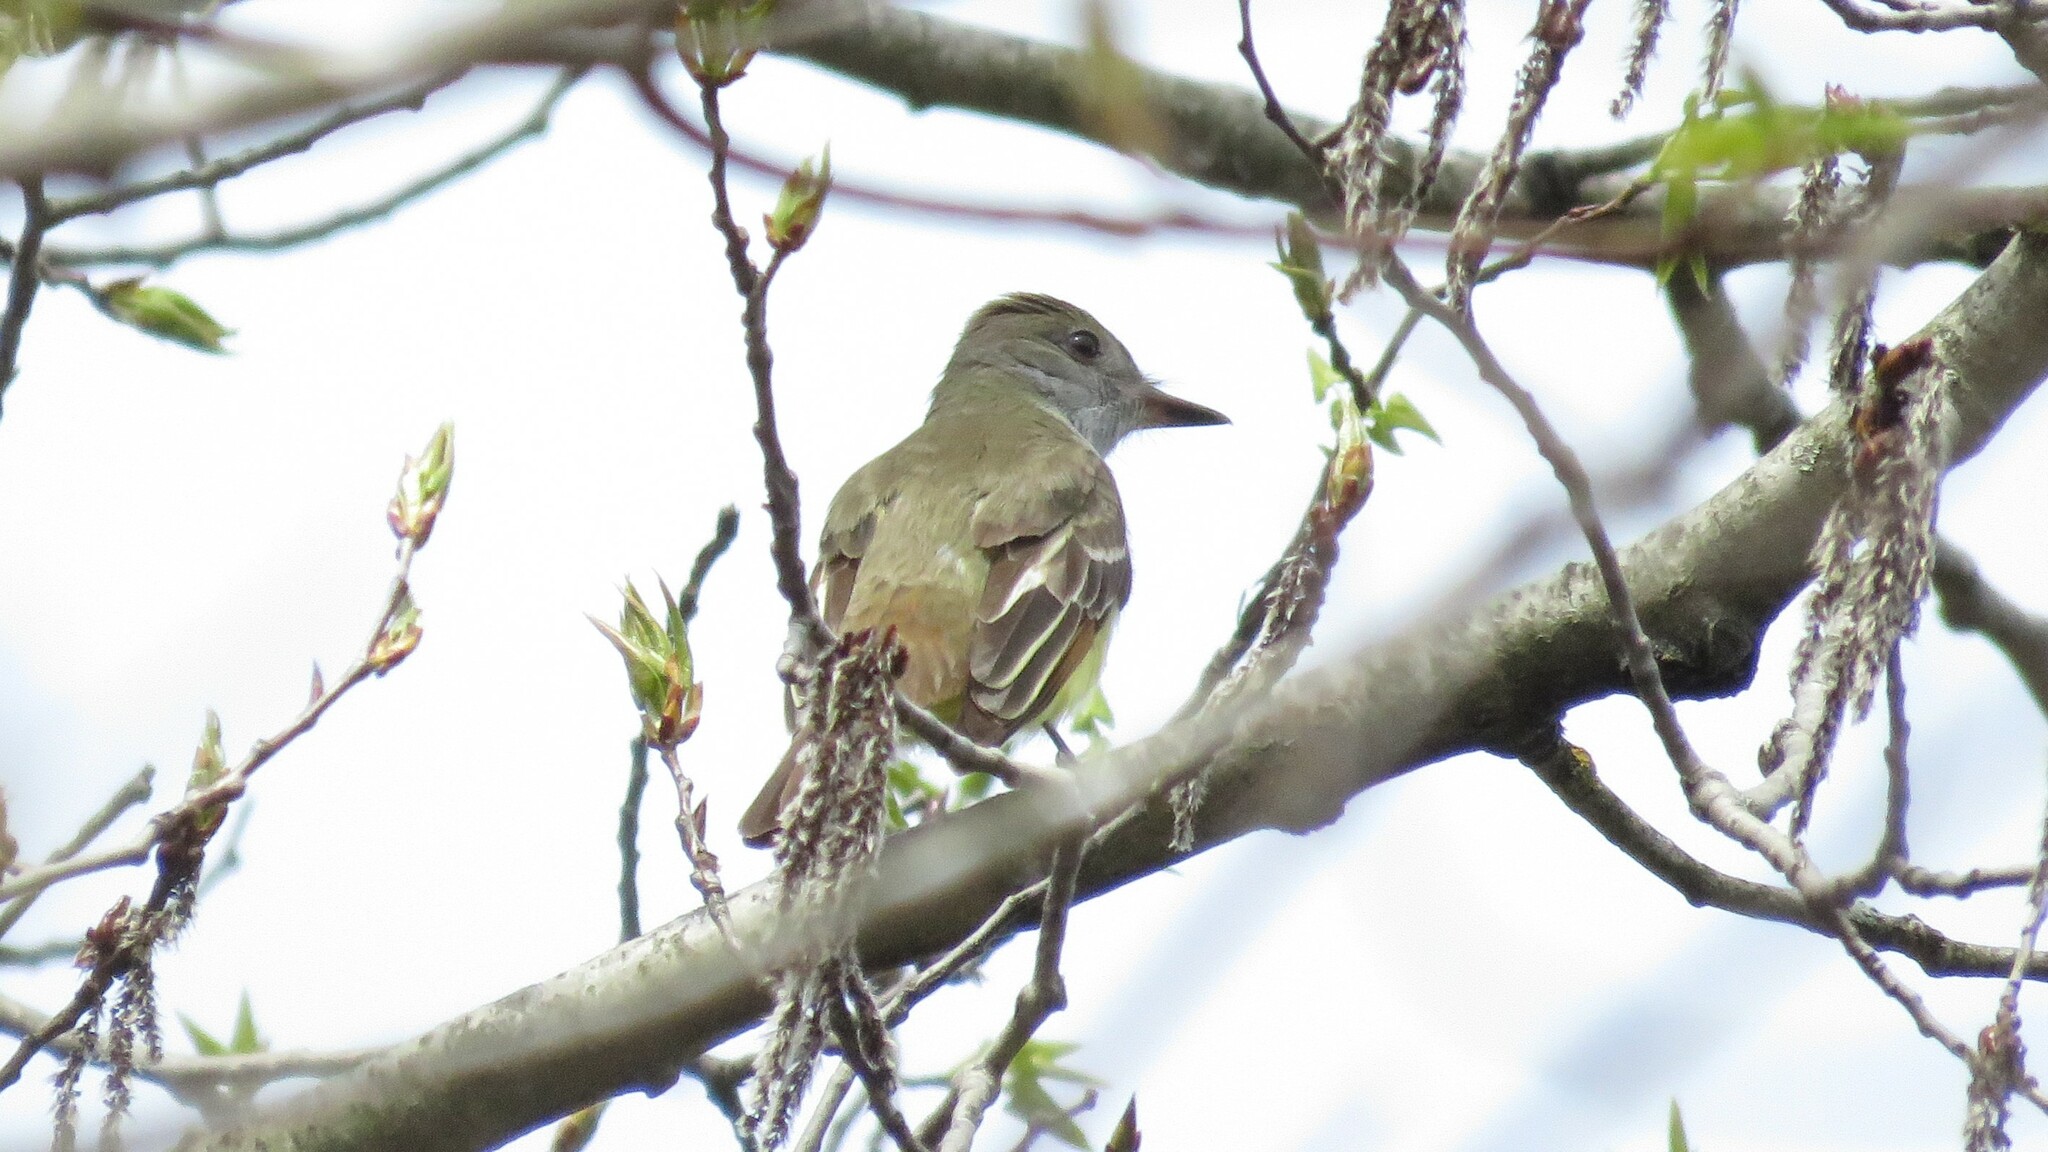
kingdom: Animalia
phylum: Chordata
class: Aves
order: Passeriformes
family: Tyrannidae
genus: Myiarchus
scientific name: Myiarchus crinitus
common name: Great crested flycatcher
